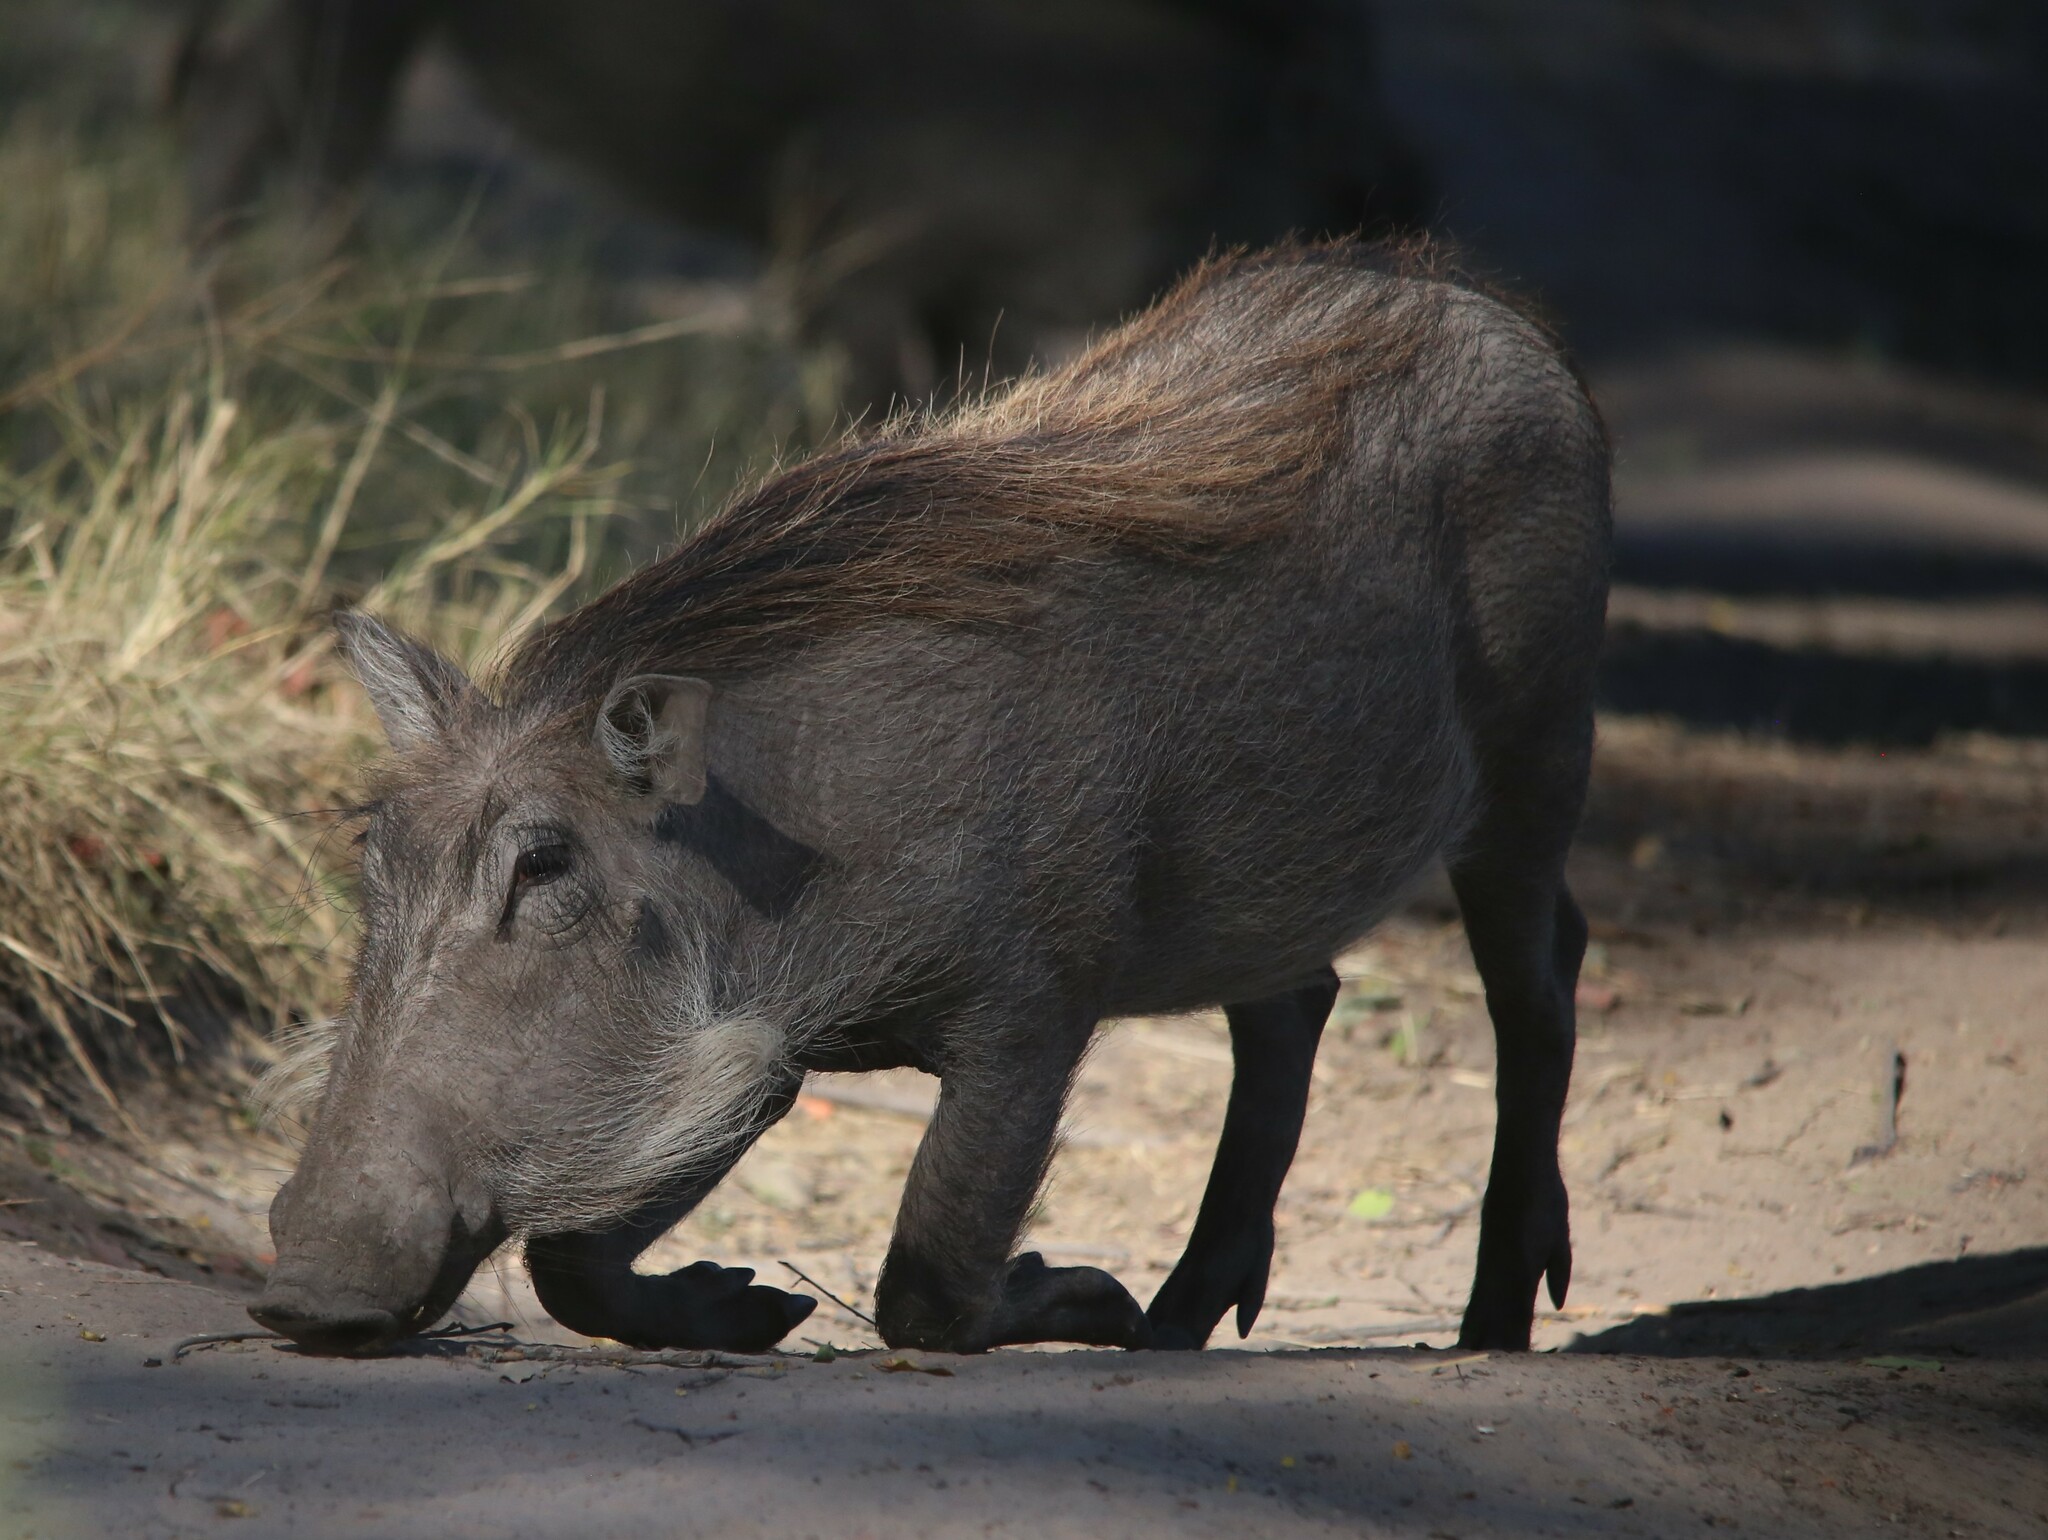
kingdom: Animalia
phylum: Chordata
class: Mammalia
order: Artiodactyla
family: Suidae
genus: Phacochoerus
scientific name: Phacochoerus africanus
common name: Common warthog
